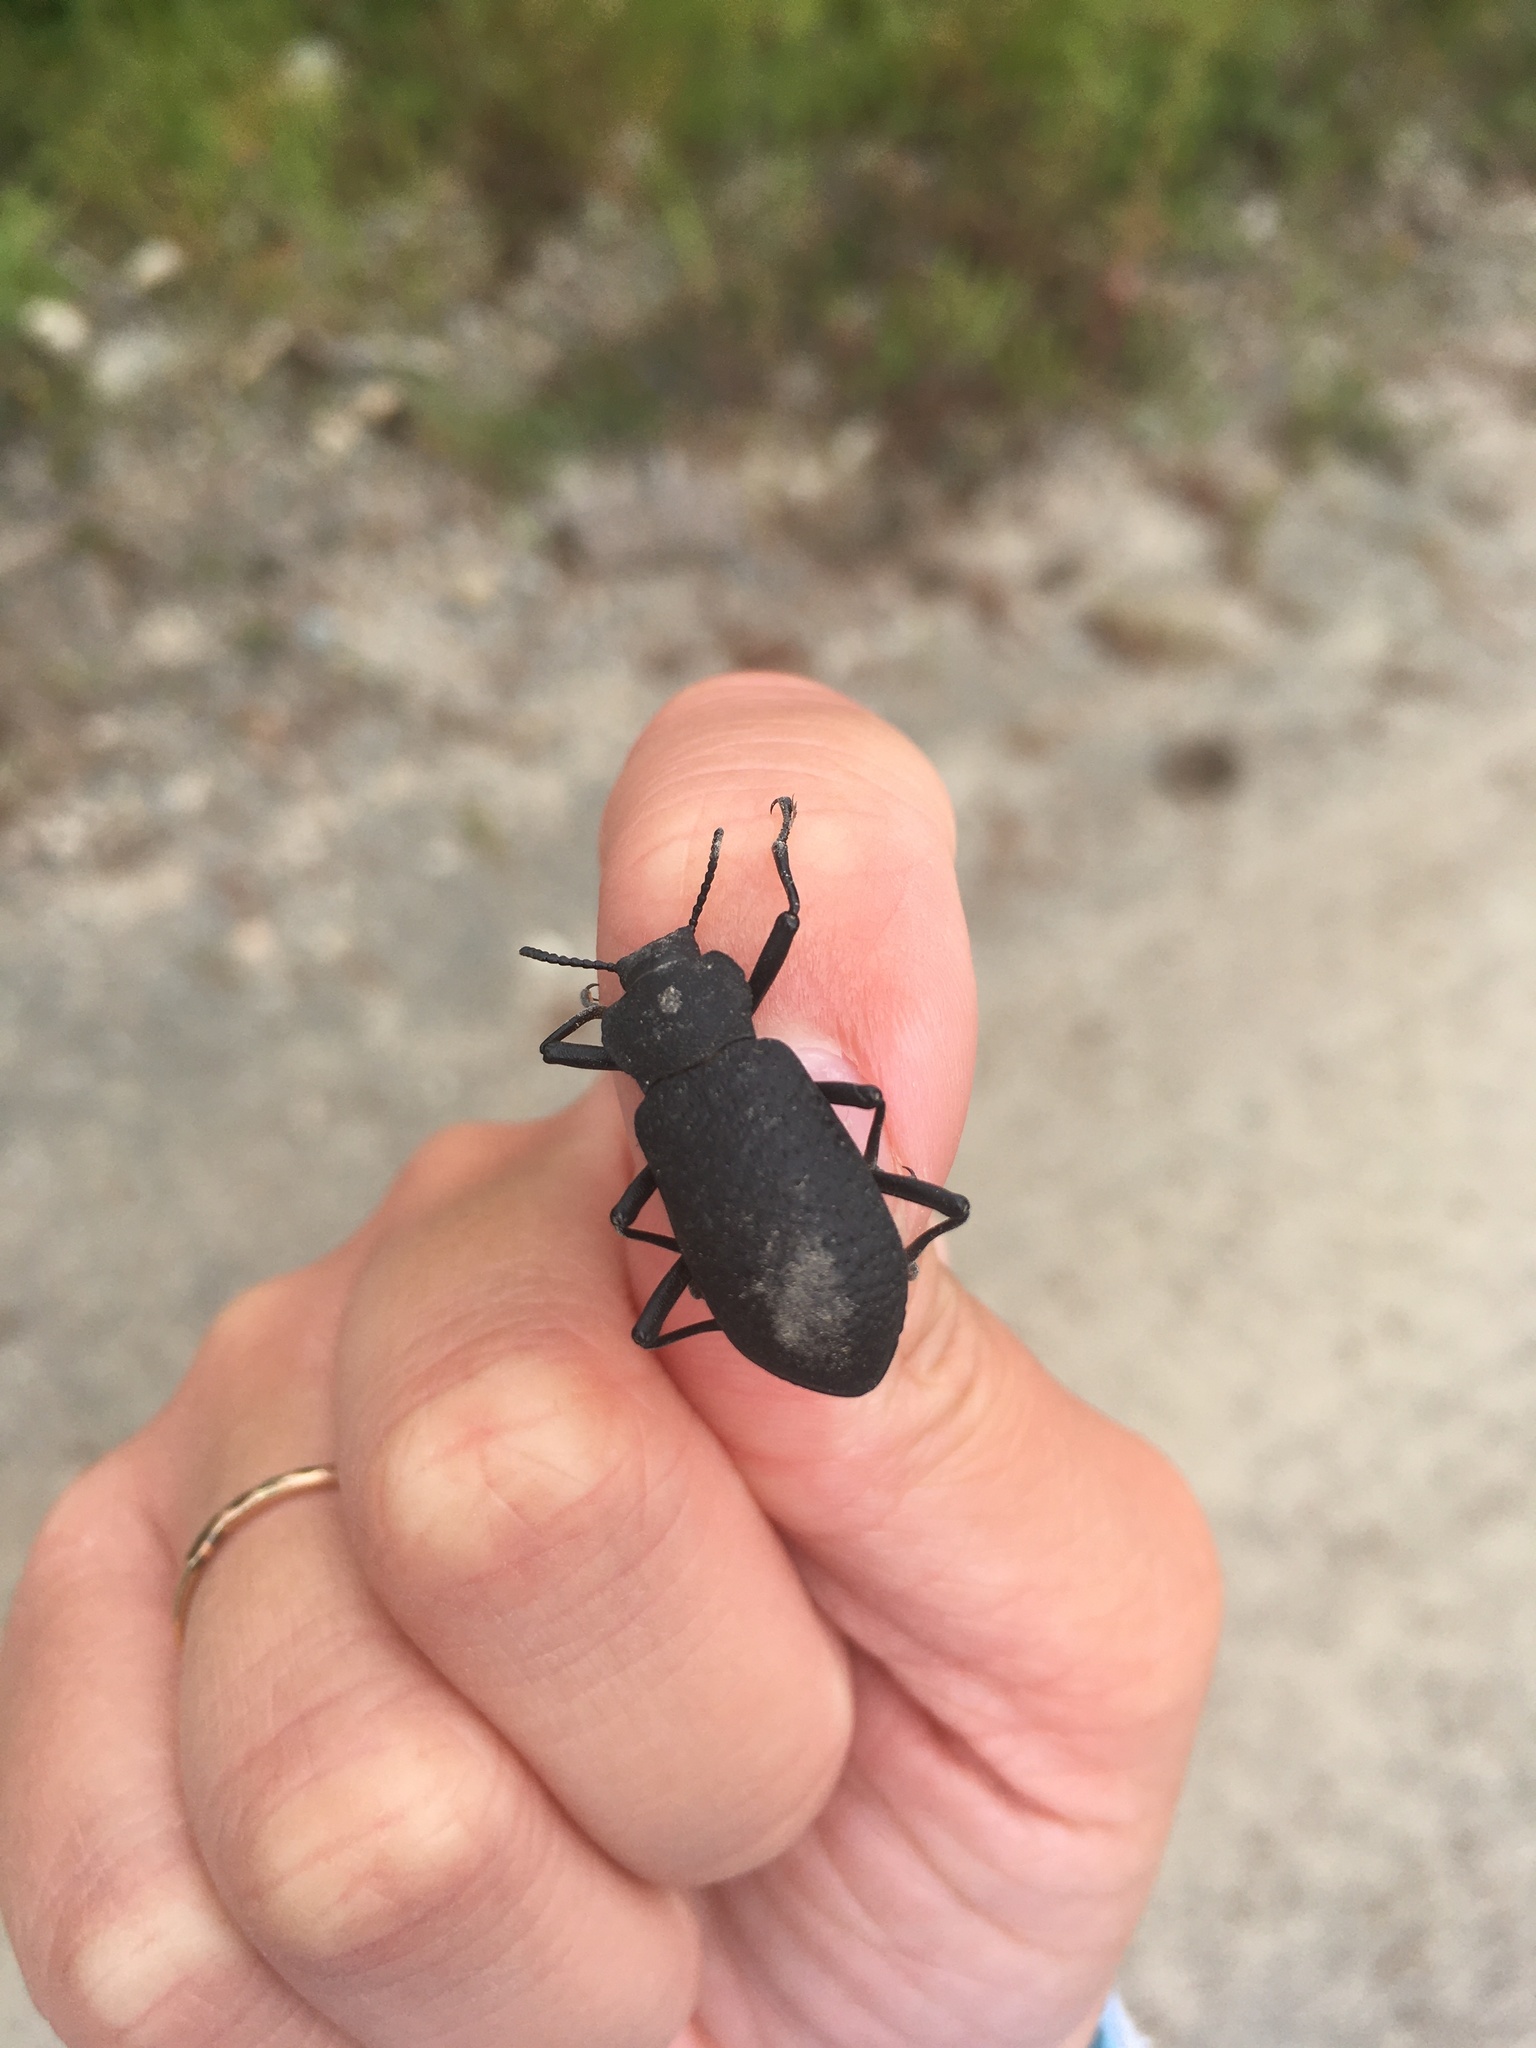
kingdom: Animalia
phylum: Arthropoda
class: Insecta
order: Coleoptera
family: Tenebrionidae
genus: Iphthiminus
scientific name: Iphthiminus serratus
